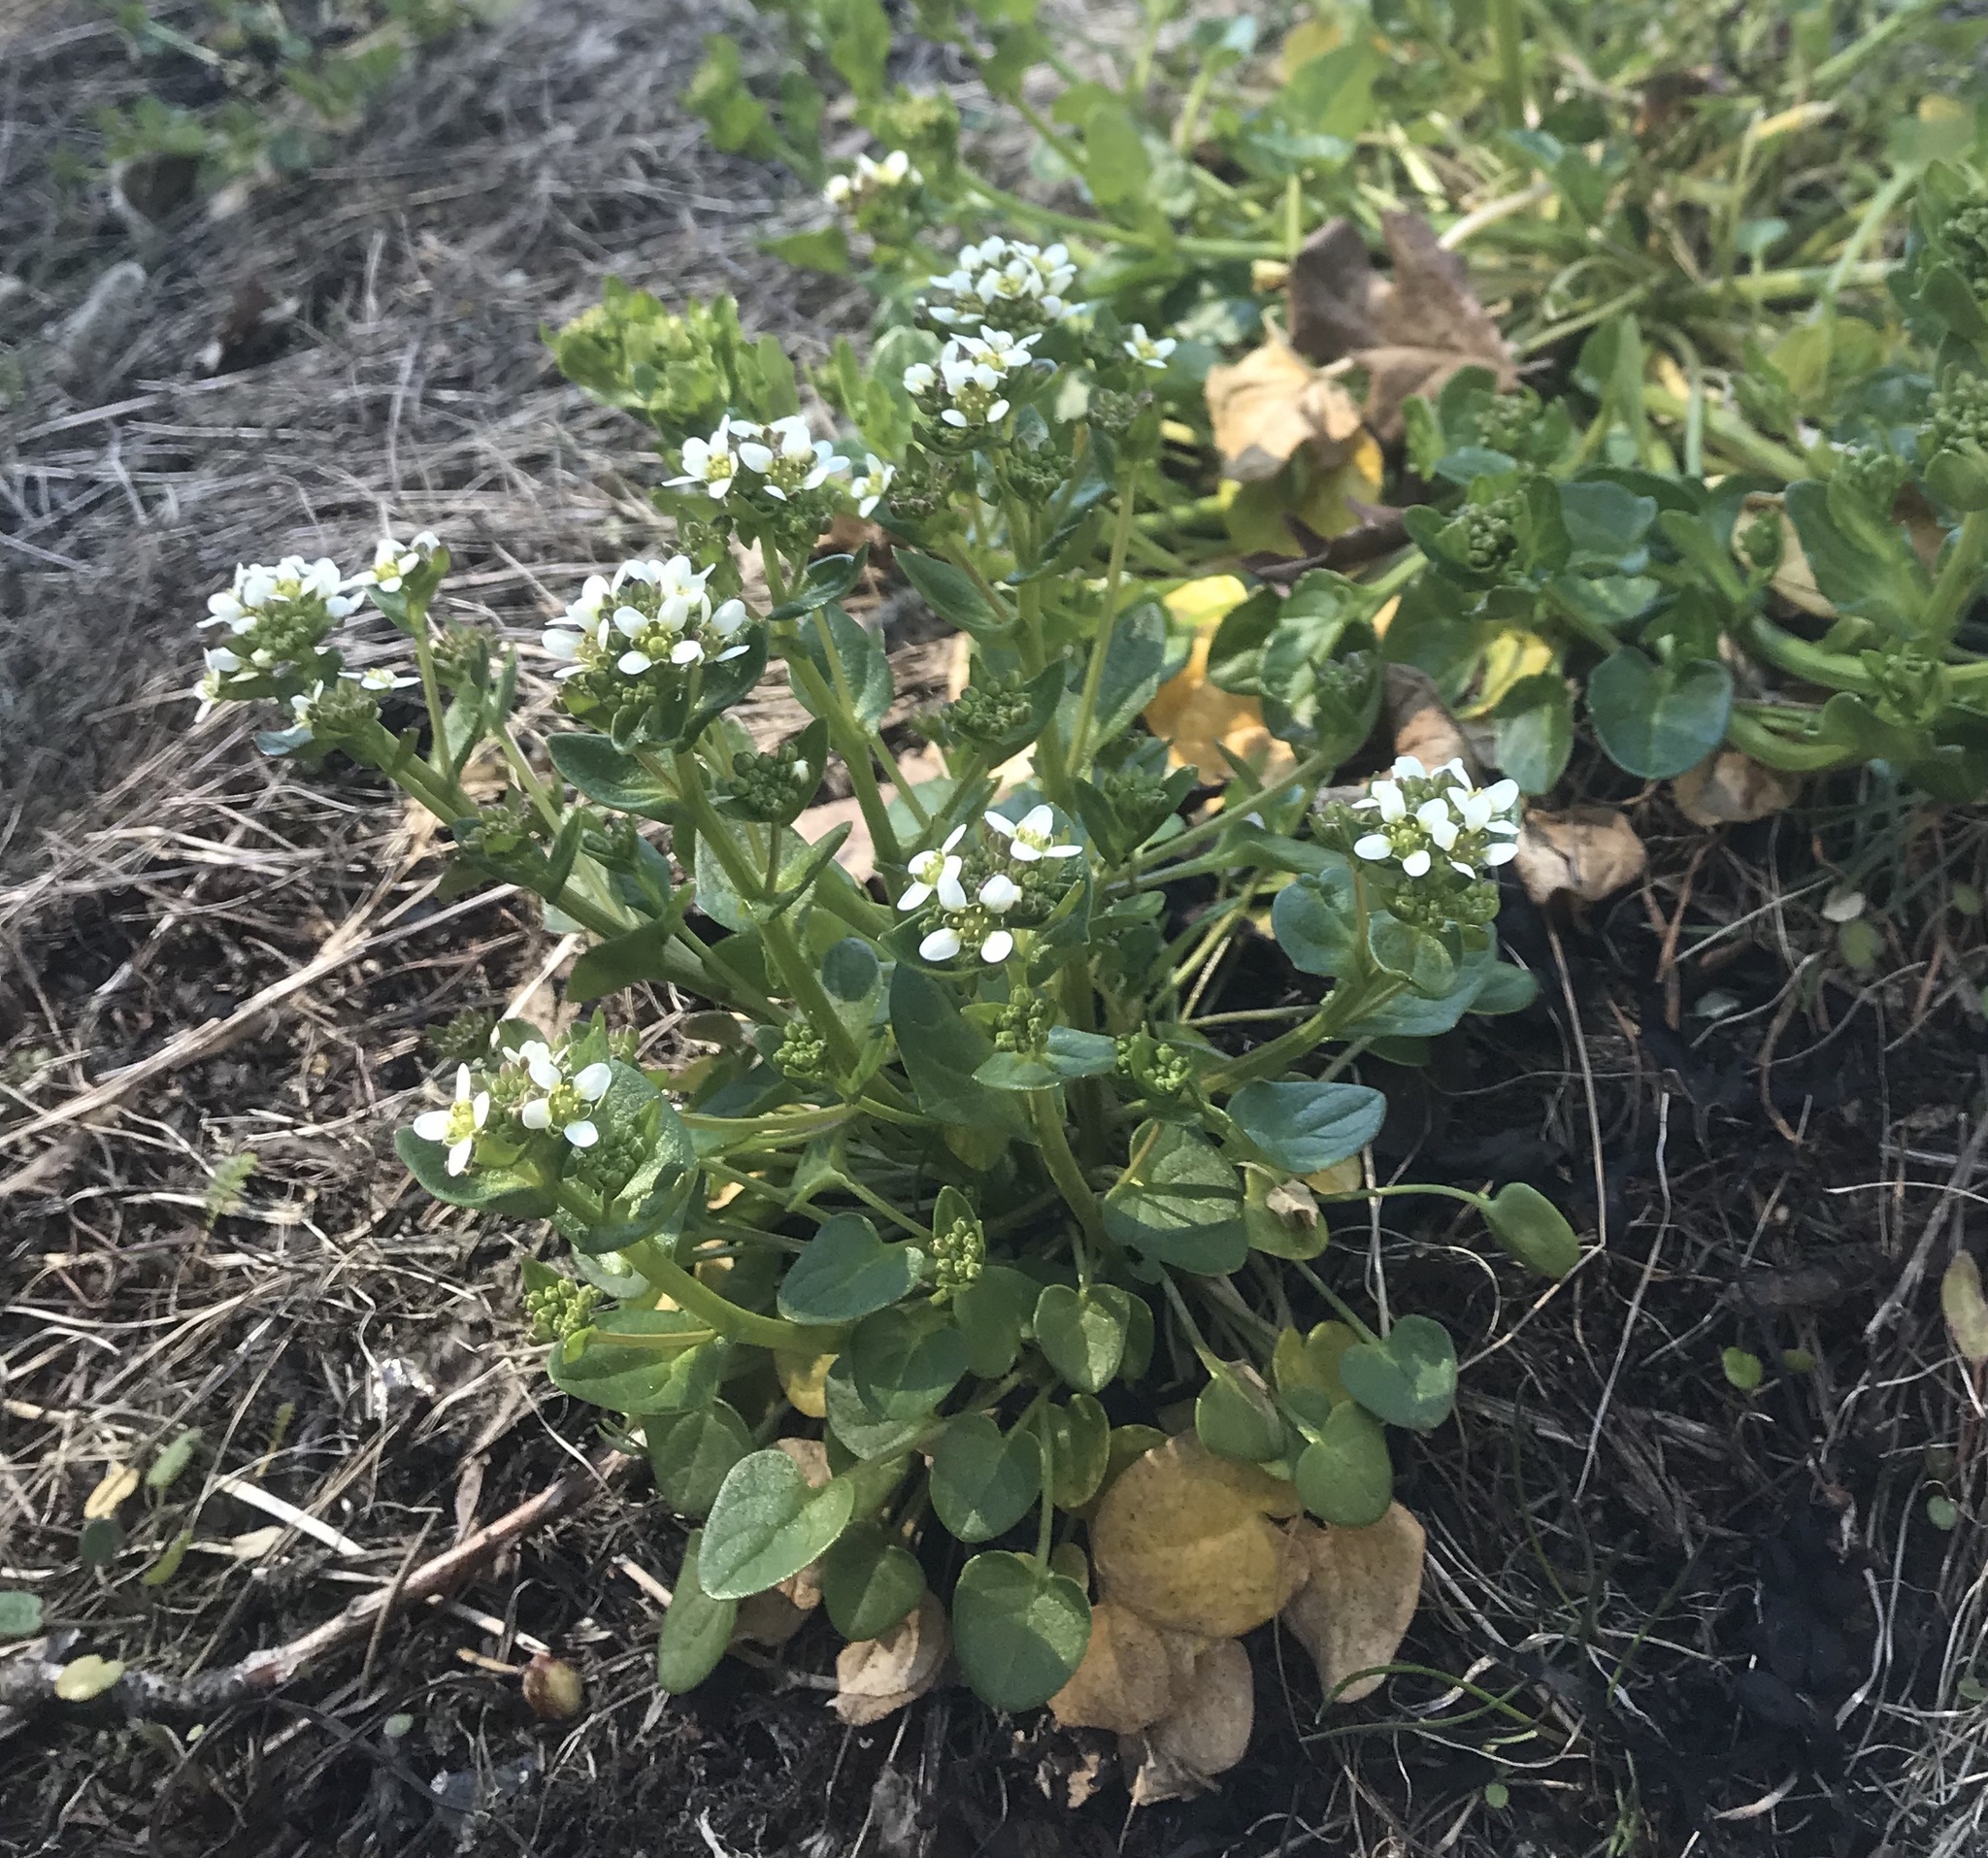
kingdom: Plantae
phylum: Tracheophyta
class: Magnoliopsida
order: Brassicales
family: Brassicaceae
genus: Cochlearia
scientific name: Cochlearia officinalis
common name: Scurvy-grass
